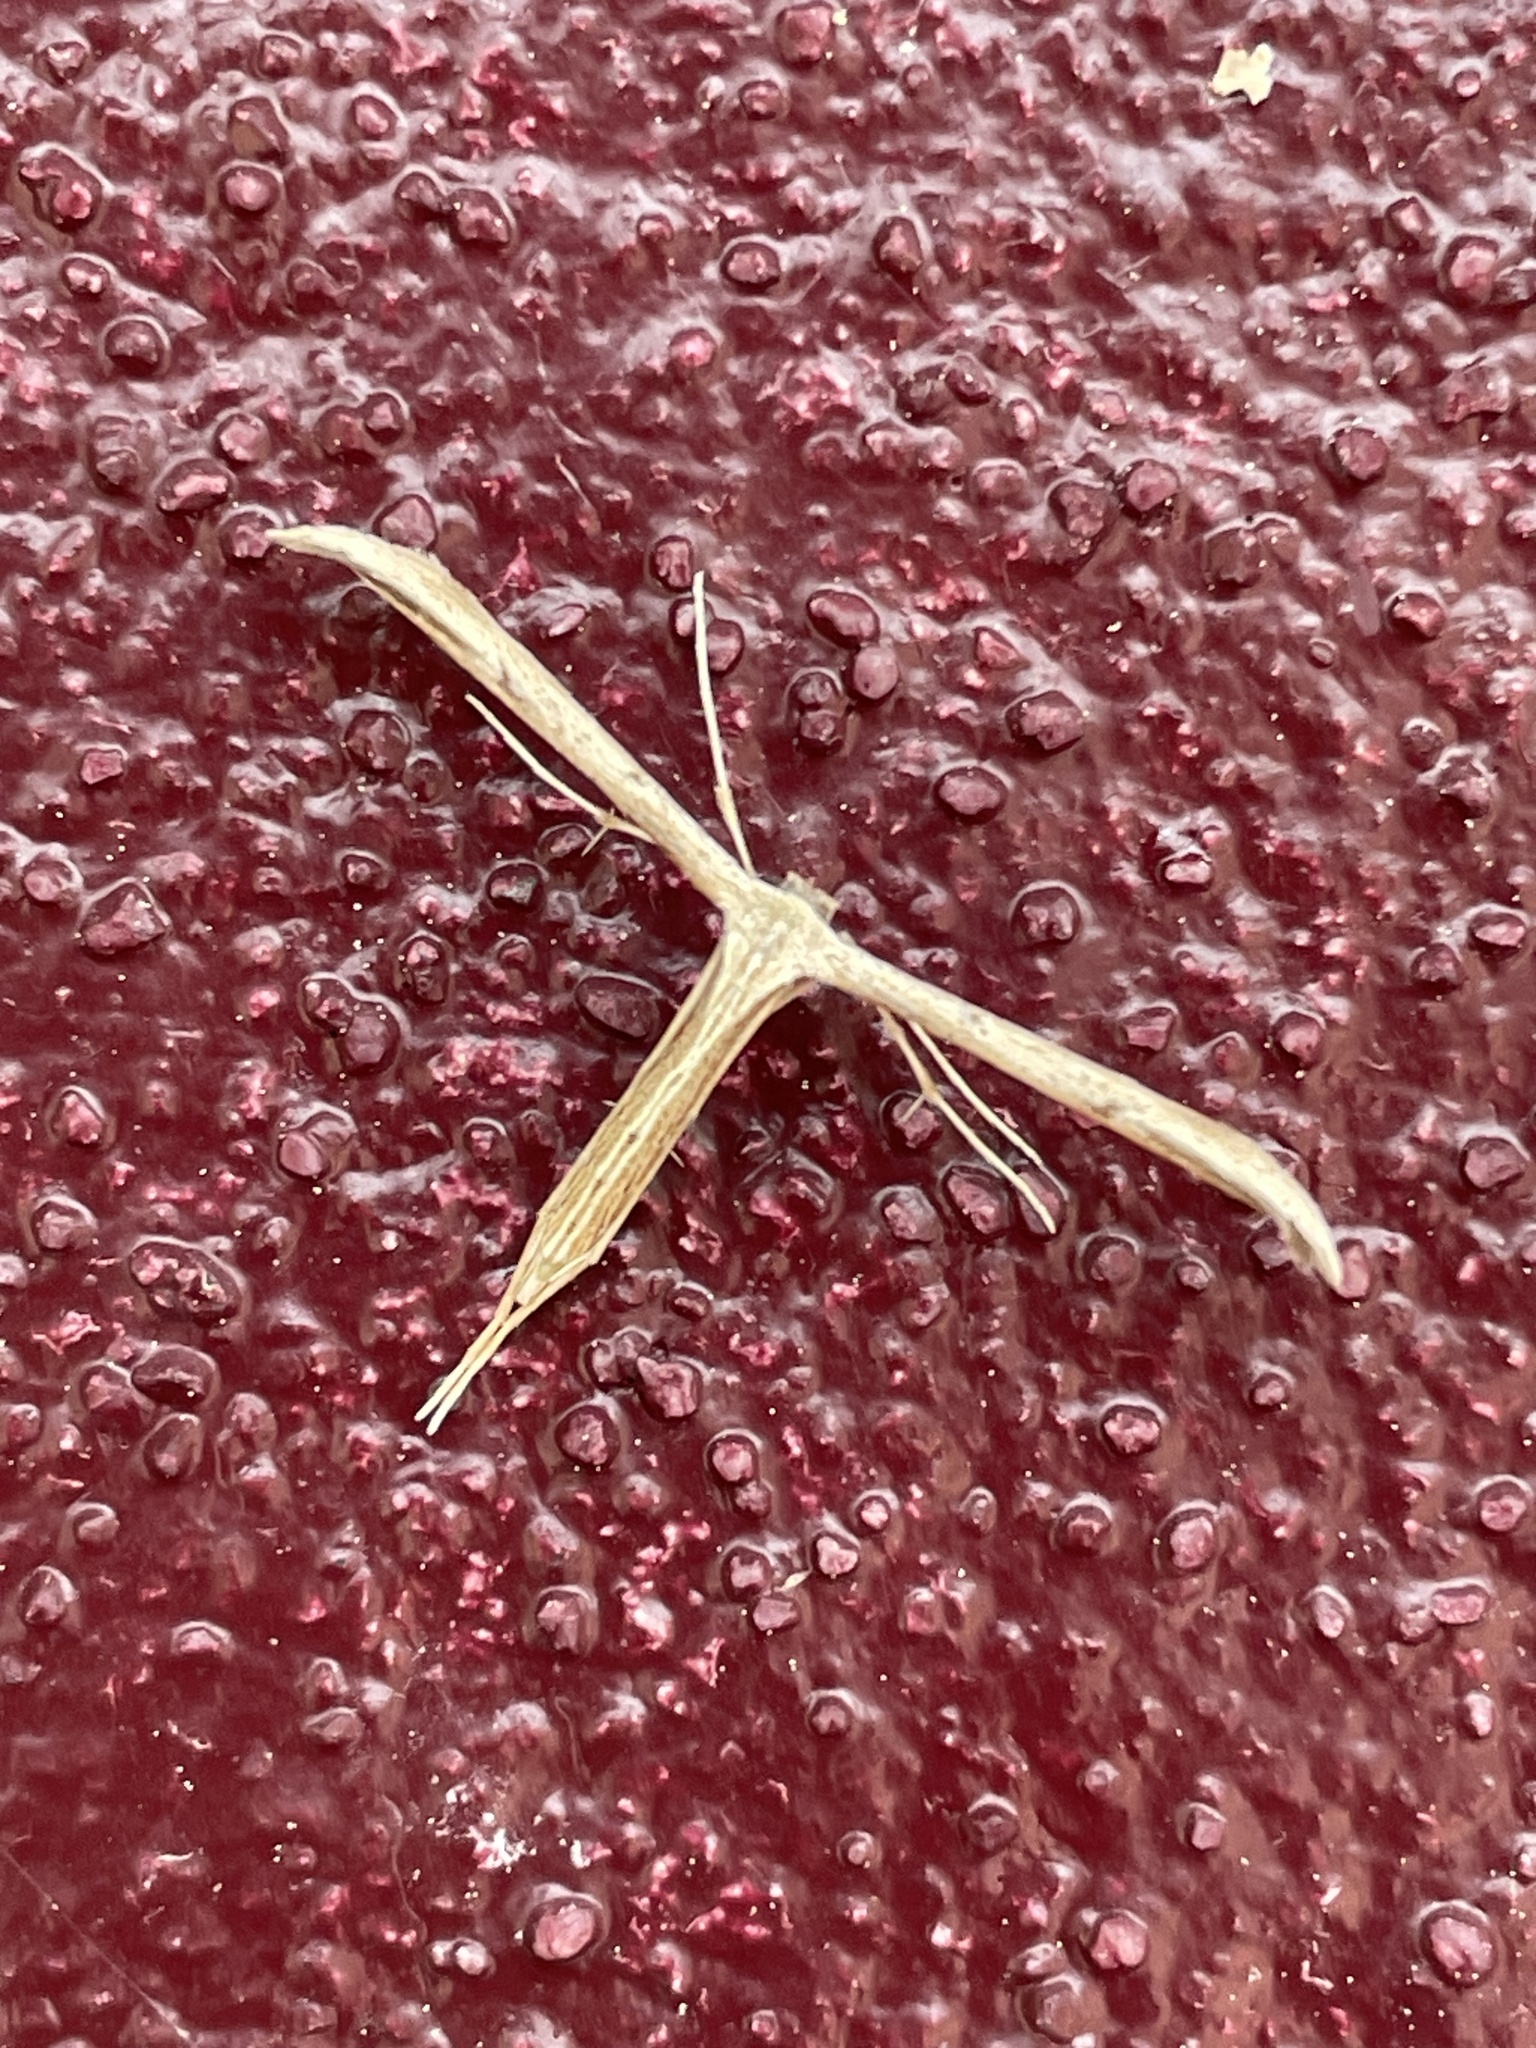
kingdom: Animalia
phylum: Arthropoda
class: Insecta
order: Lepidoptera
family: Pterophoridae
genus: Emmelina
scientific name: Emmelina monodactyla
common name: Common plume
